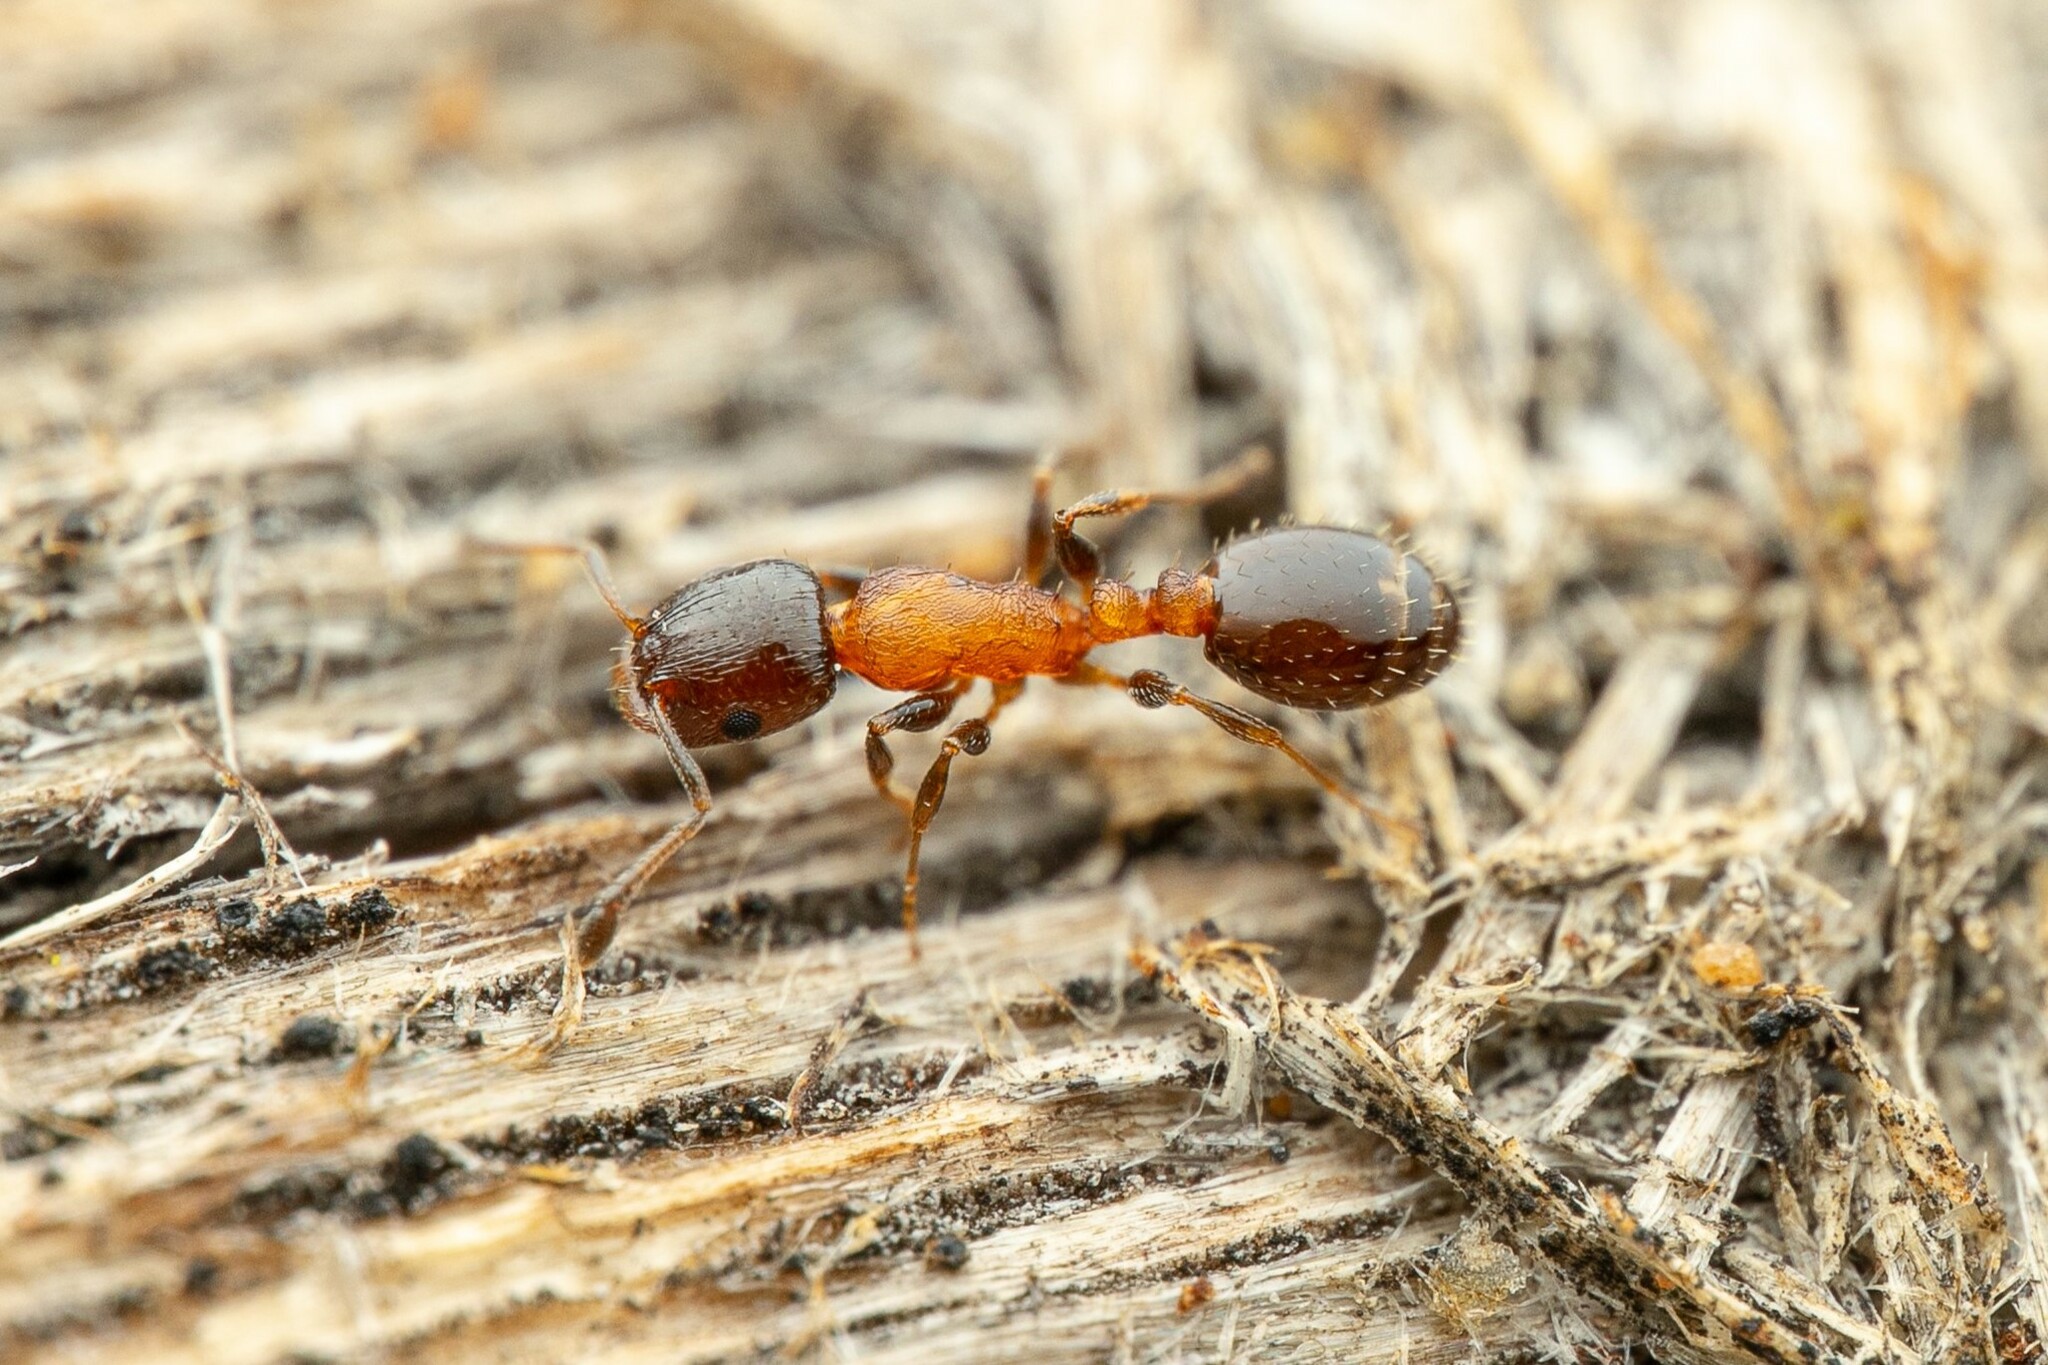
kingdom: Animalia
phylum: Arthropoda
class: Insecta
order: Hymenoptera
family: Formicidae
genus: Temnothorax
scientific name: Temnothorax
